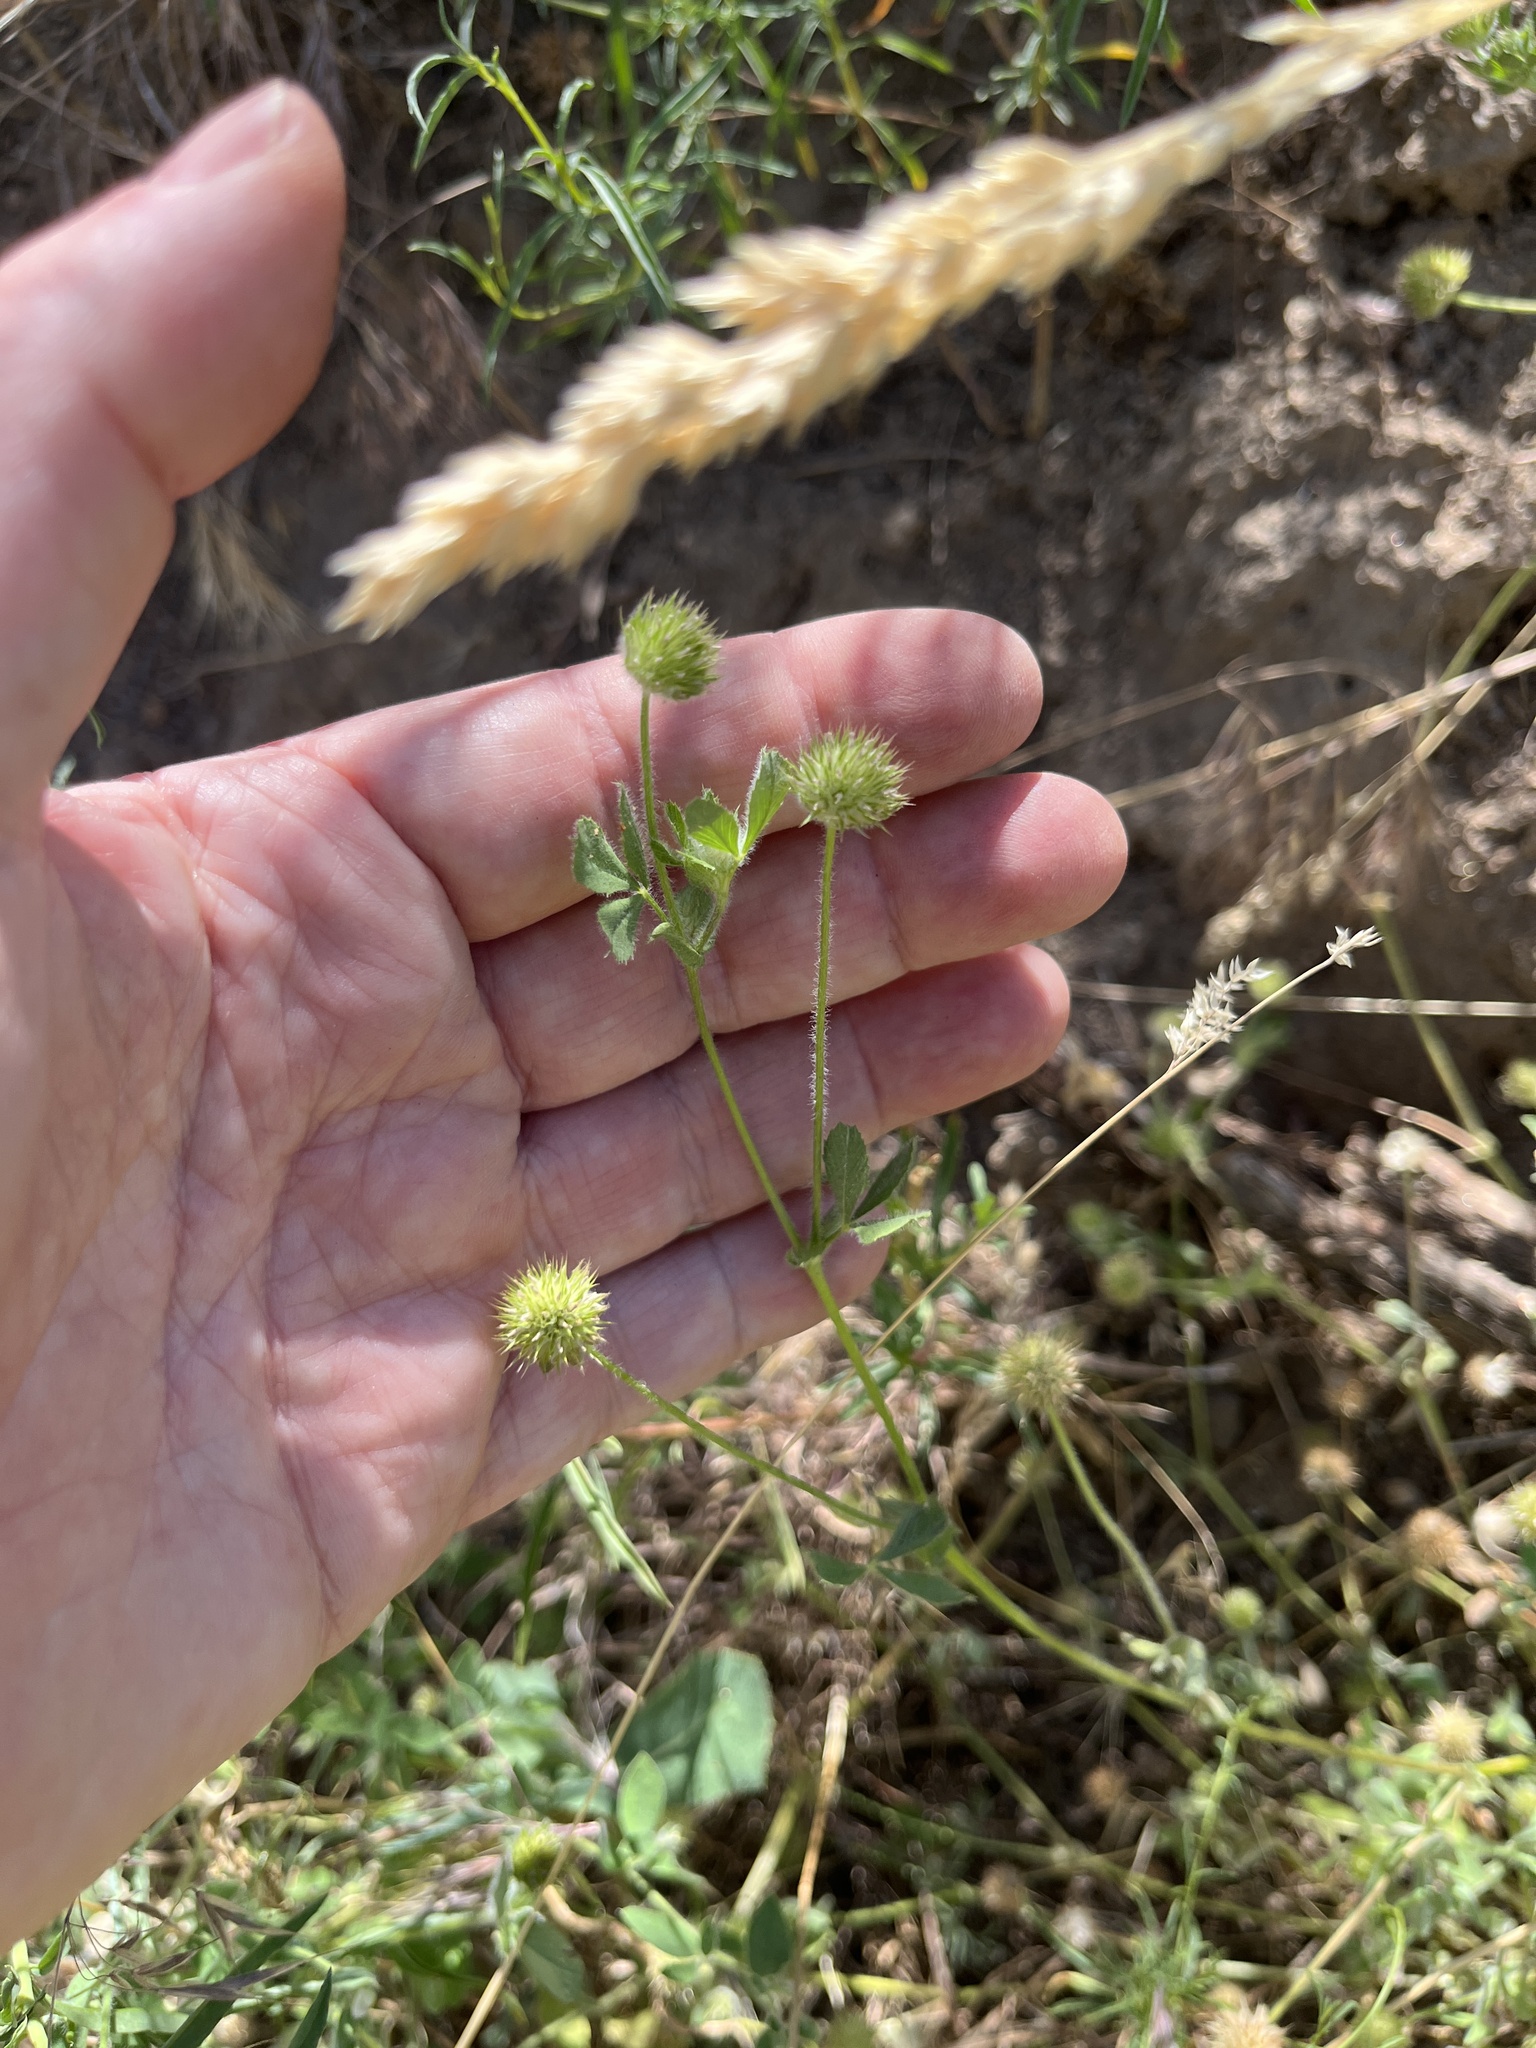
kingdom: Plantae
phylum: Tracheophyta
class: Magnoliopsida
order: Fabales
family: Fabaceae
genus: Trifolium
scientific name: Trifolium microcephalum
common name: Maiden clover
